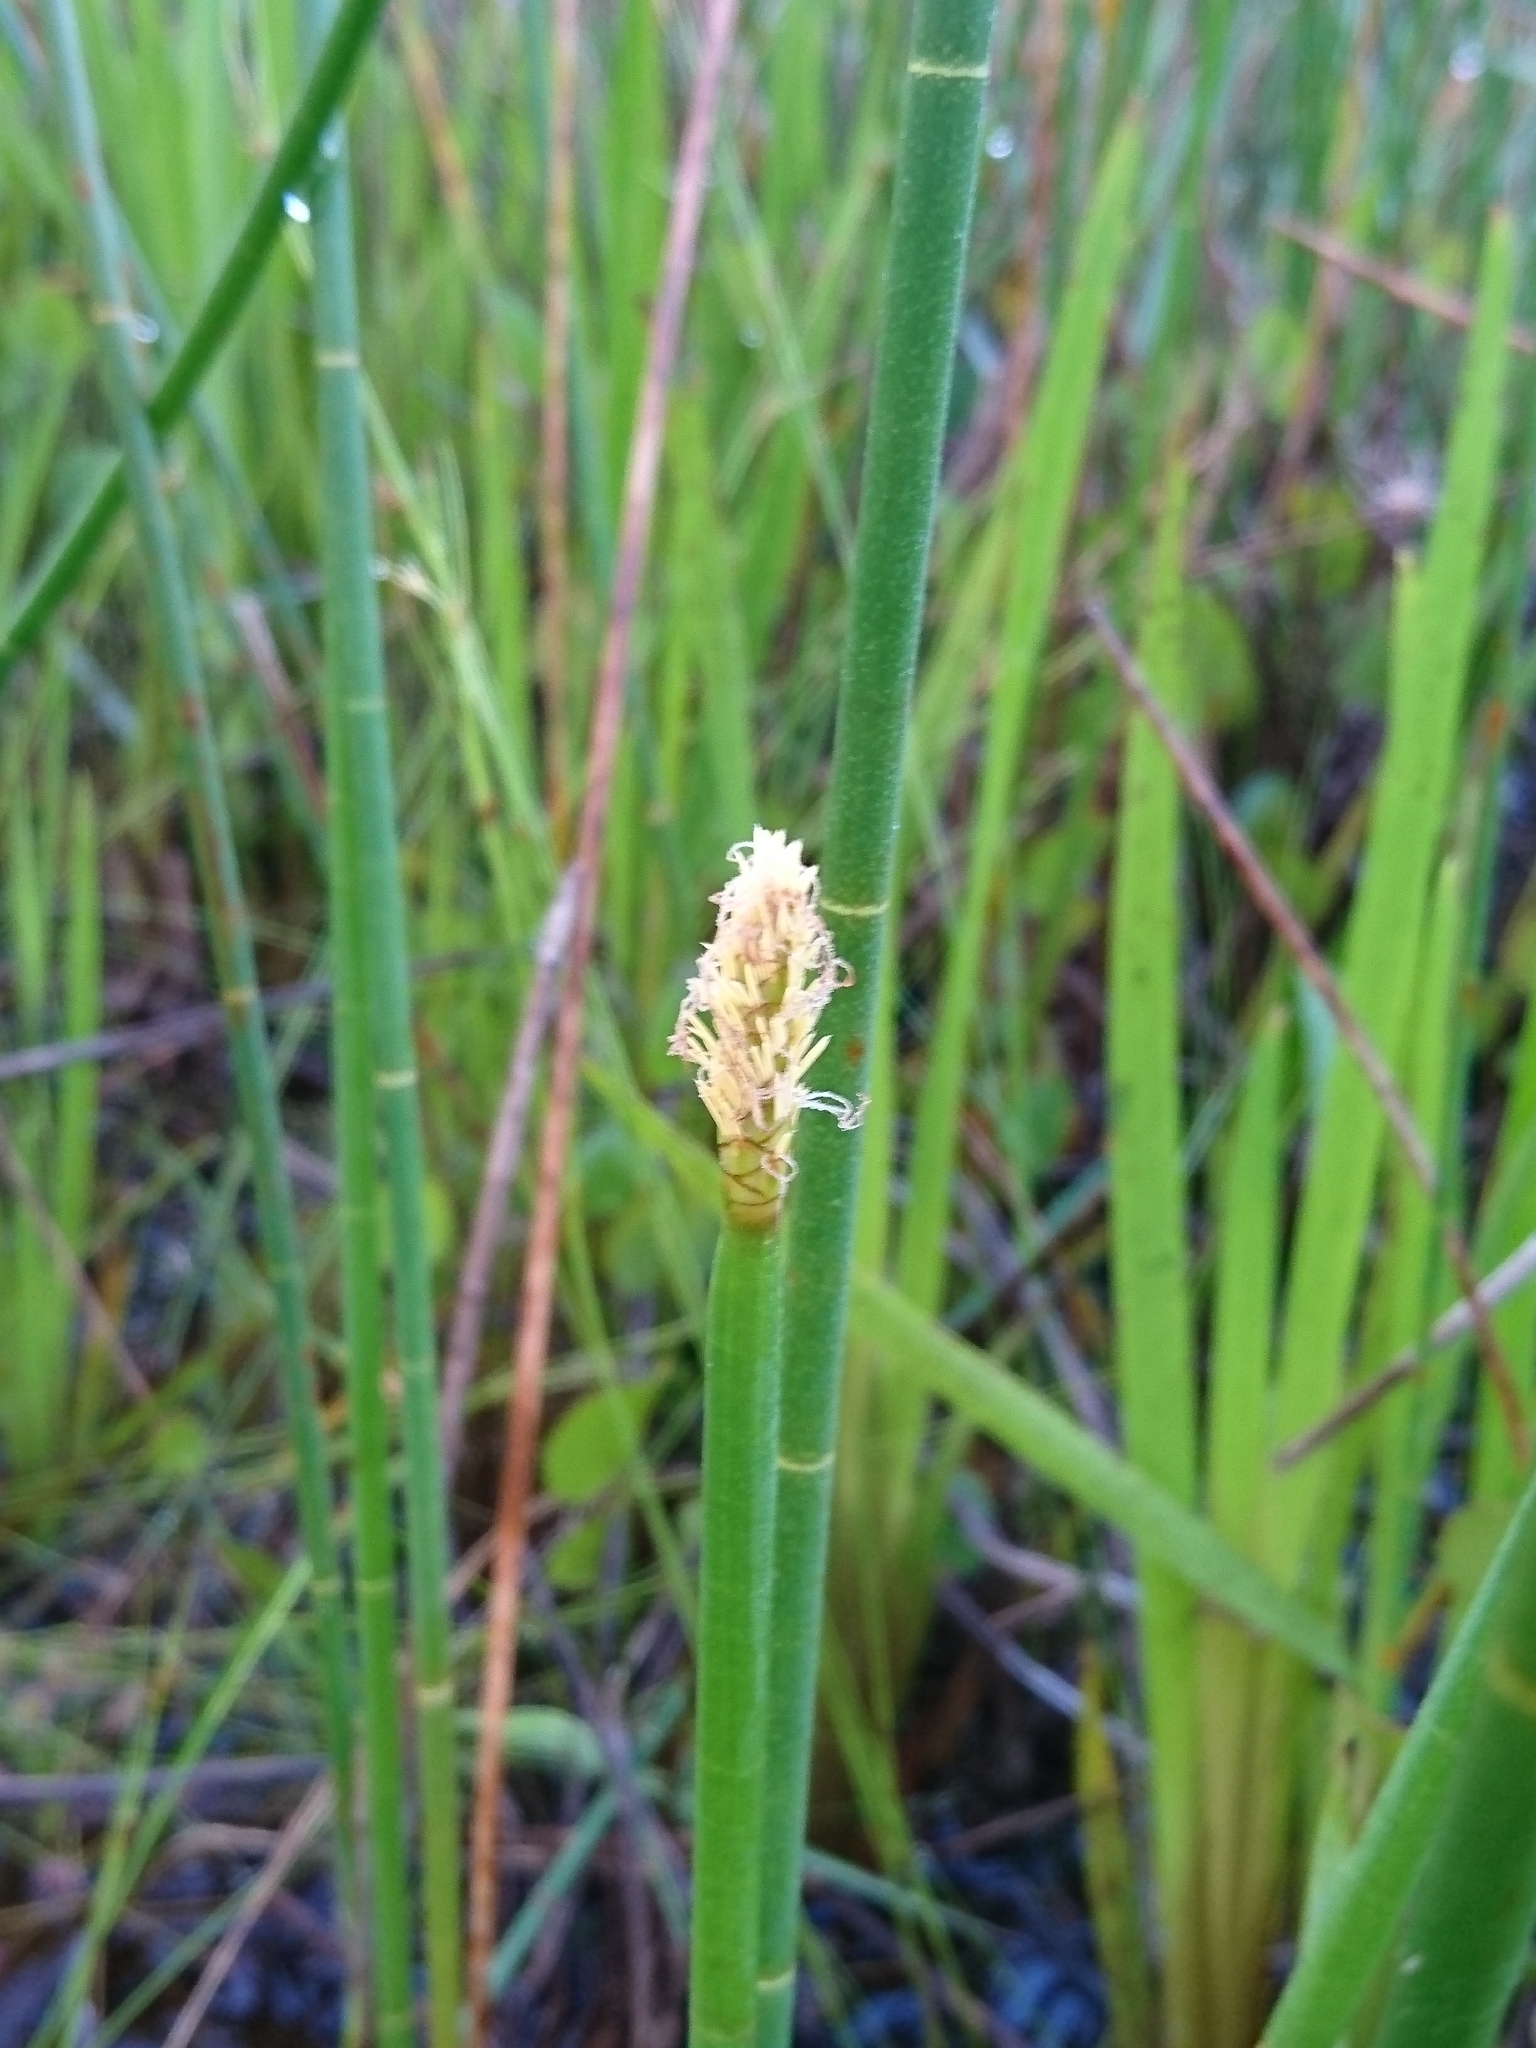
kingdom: Plantae
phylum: Tracheophyta
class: Liliopsida
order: Poales
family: Cyperaceae
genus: Eleocharis
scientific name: Eleocharis palustris
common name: Common spike-rush
